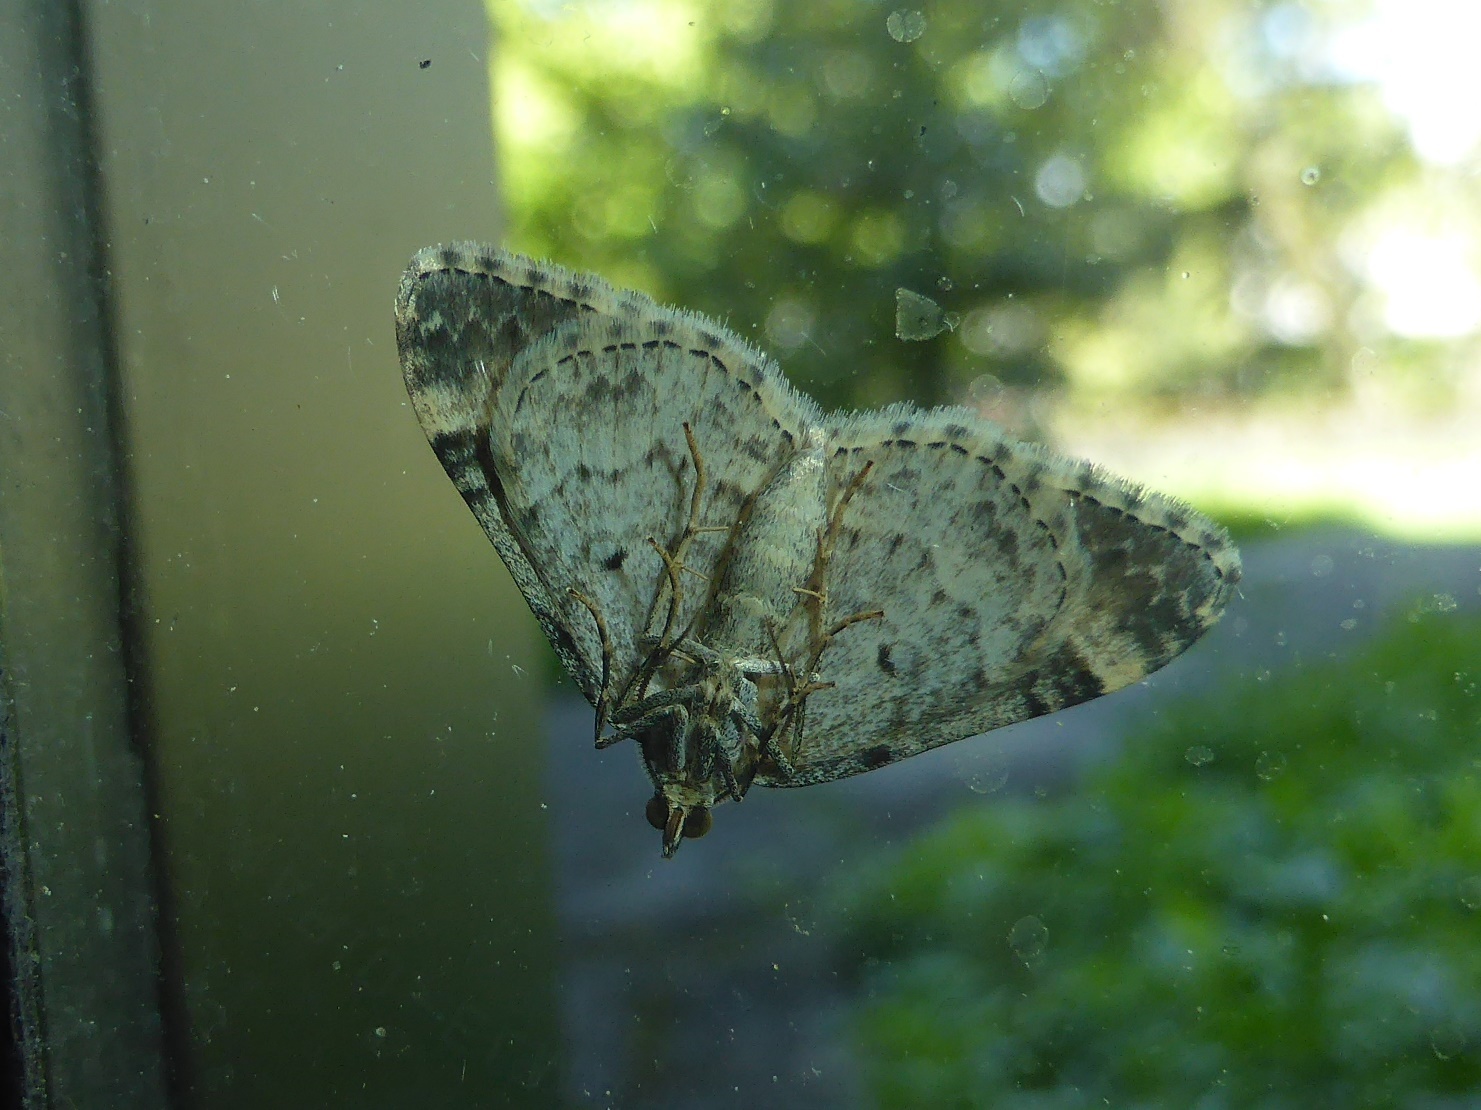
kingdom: Animalia
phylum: Arthropoda
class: Insecta
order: Lepidoptera
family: Geometridae
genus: Epirrhoe
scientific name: Epirrhoe alternata
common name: Common carpet
